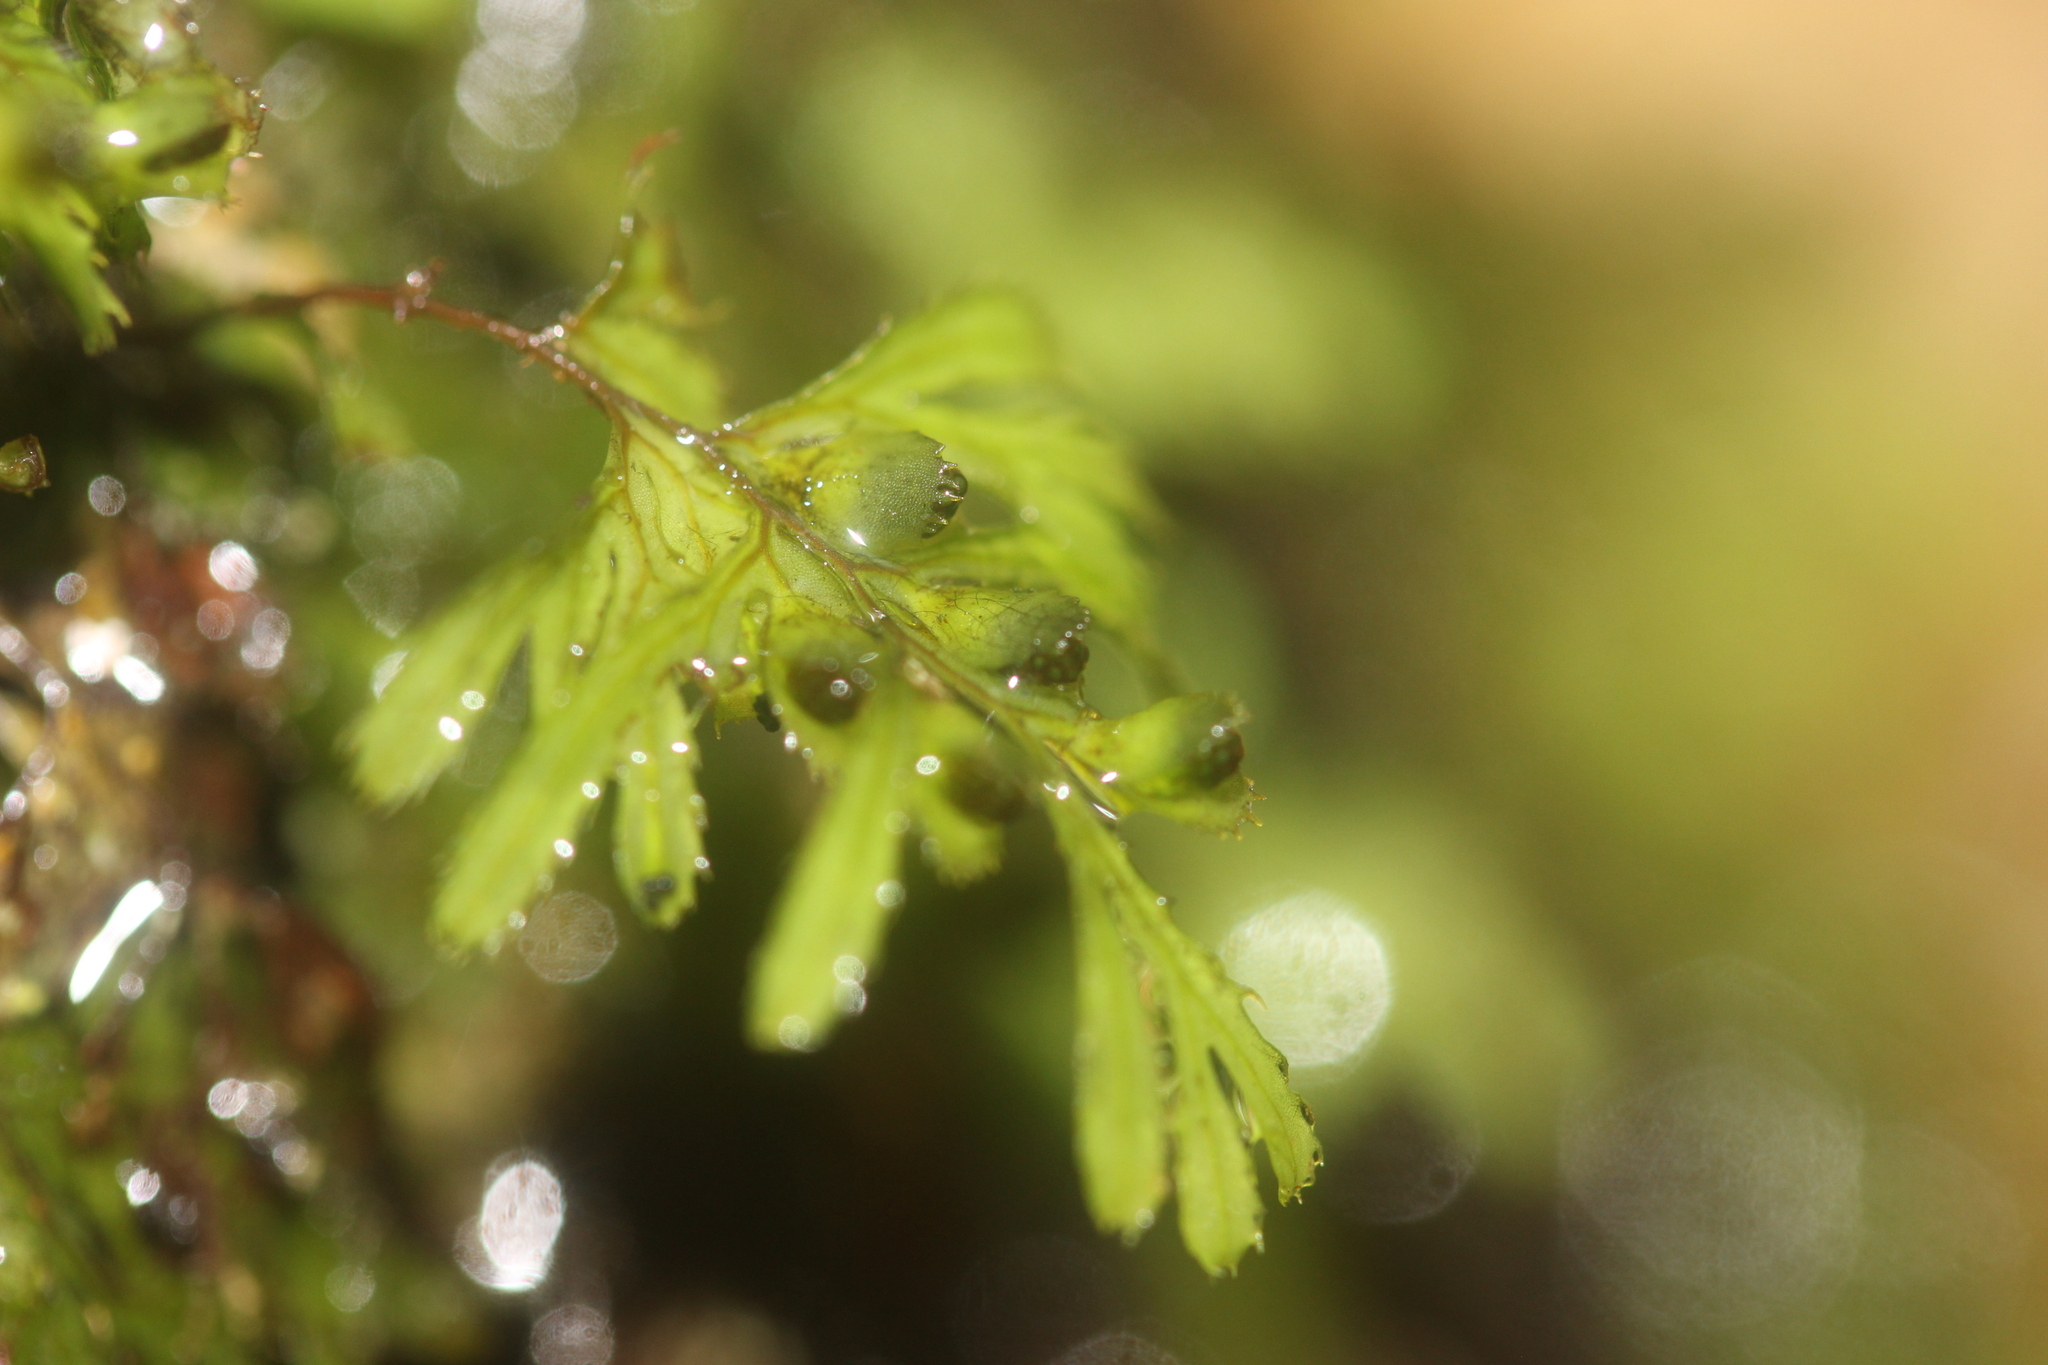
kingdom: Plantae
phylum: Tracheophyta
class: Polypodiopsida
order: Hymenophyllales
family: Hymenophyllaceae
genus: Hymenophyllum
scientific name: Hymenophyllum revolutum
